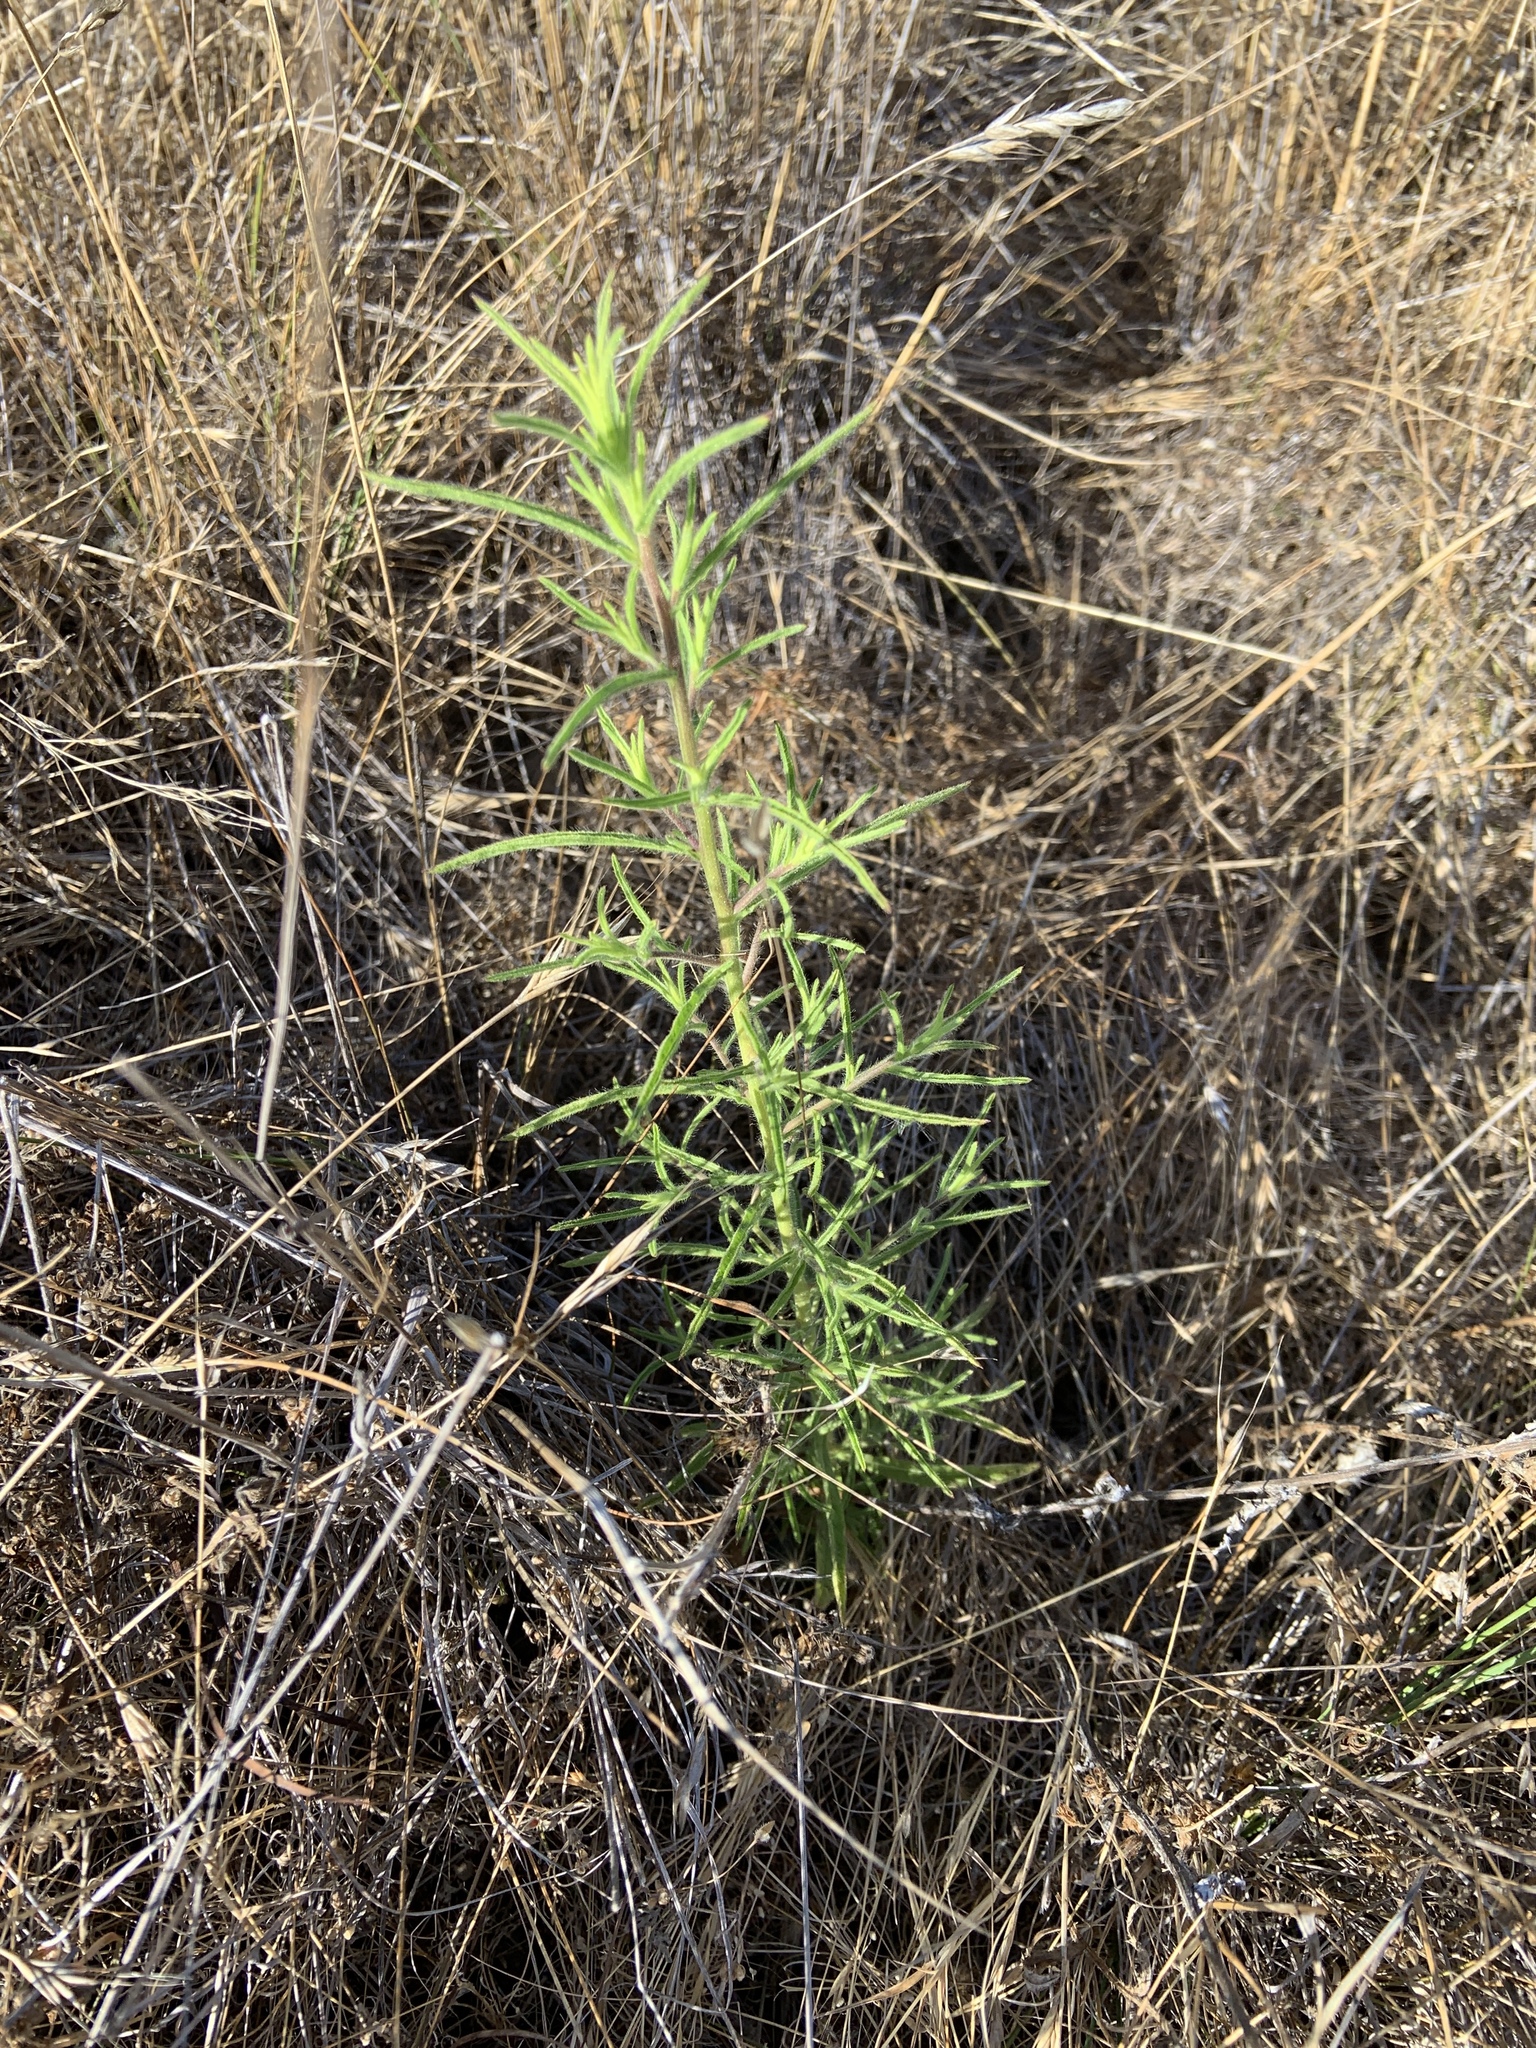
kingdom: Plantae
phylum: Tracheophyta
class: Magnoliopsida
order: Asterales
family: Asteraceae
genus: Dittrichia
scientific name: Dittrichia graveolens
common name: Stinking fleabane
